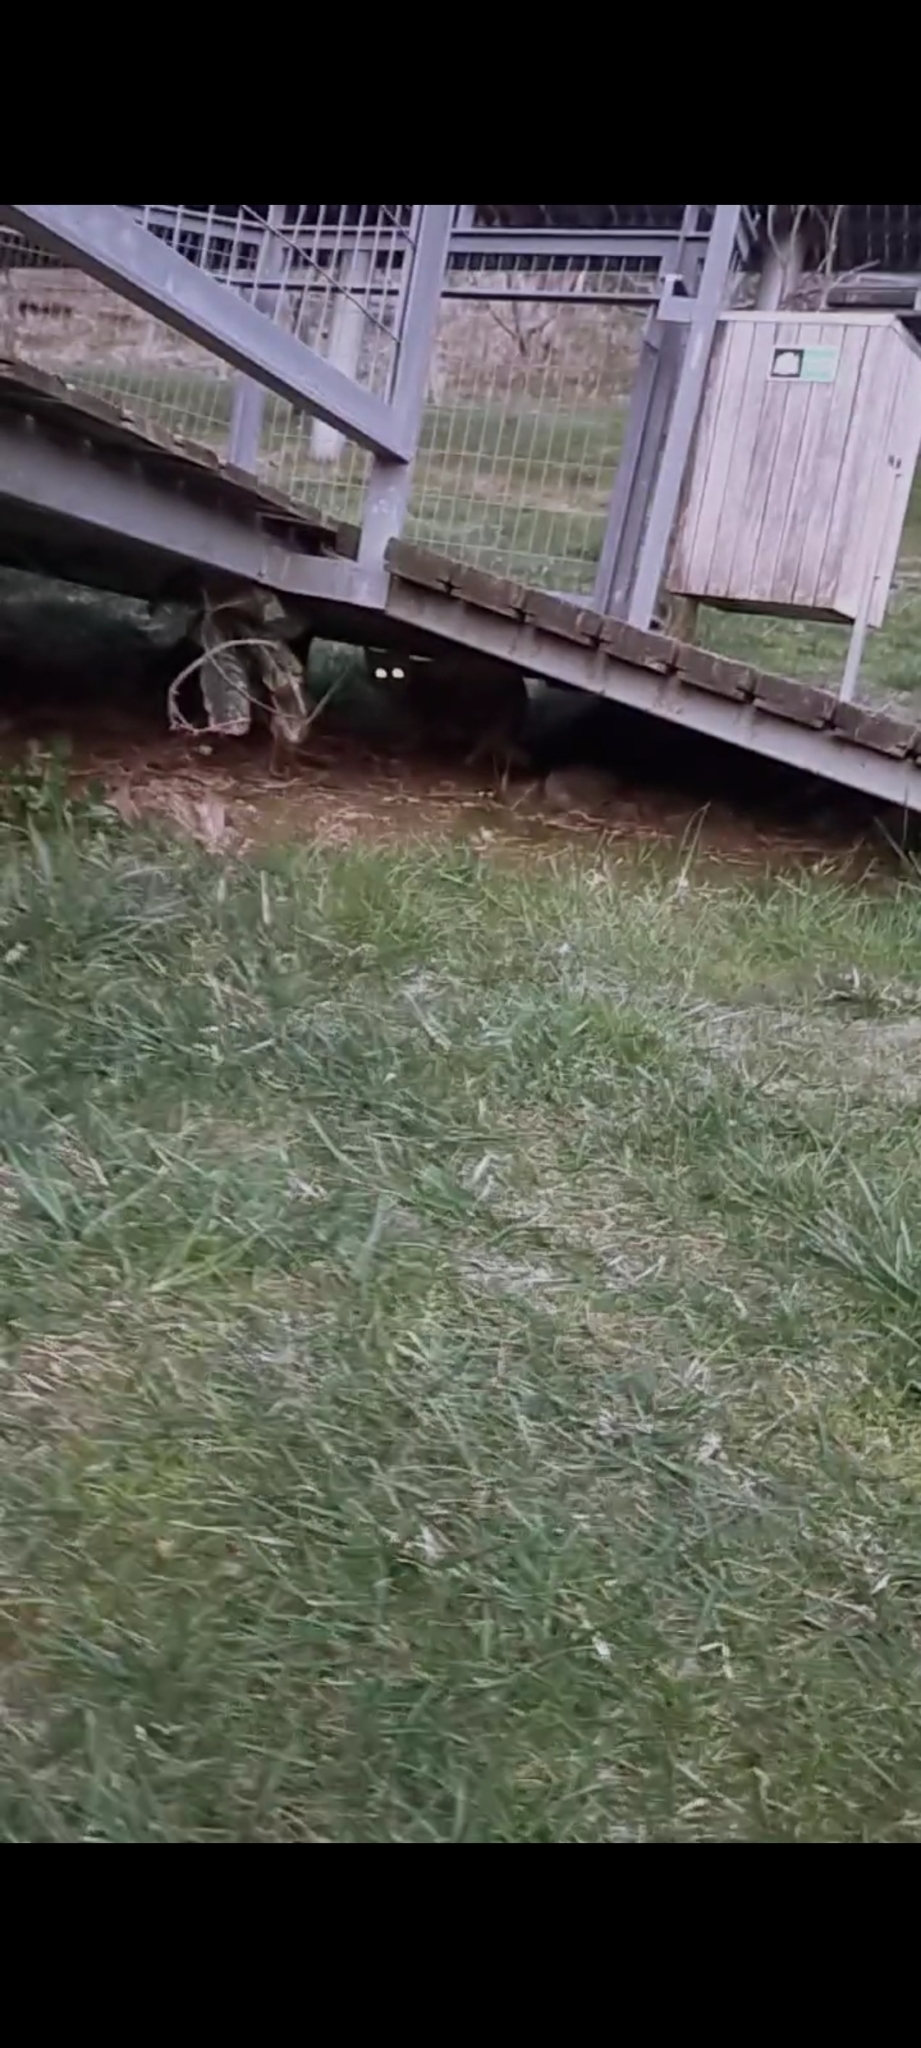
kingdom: Animalia
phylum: Chordata
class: Mammalia
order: Carnivora
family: Felidae
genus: Felis
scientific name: Felis catus
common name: Domestic cat
